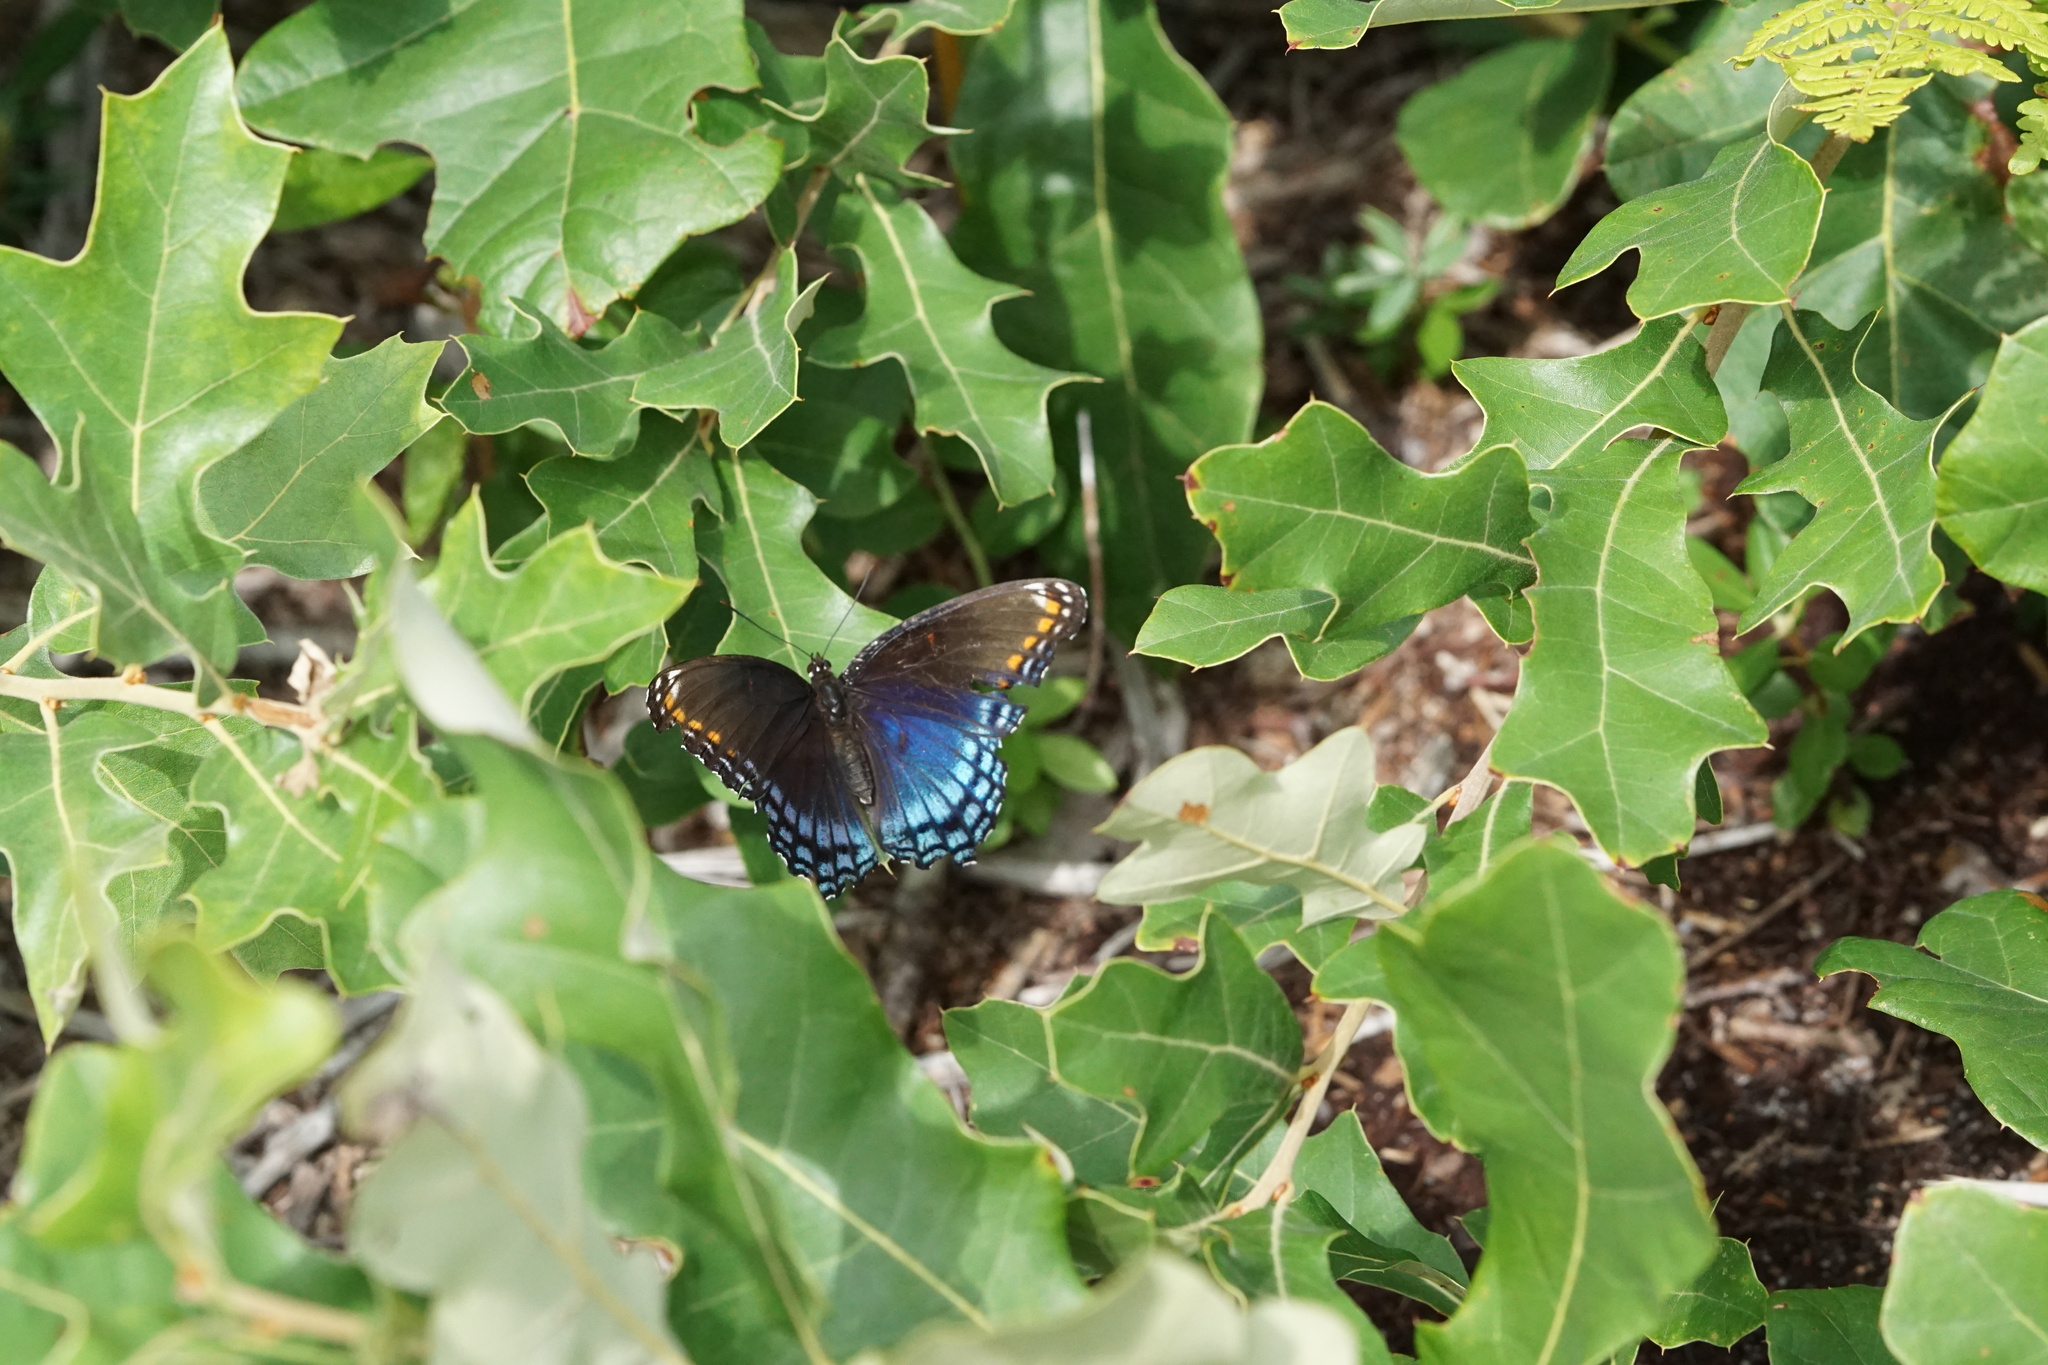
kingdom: Animalia
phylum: Arthropoda
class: Insecta
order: Lepidoptera
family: Nymphalidae
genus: Limenitis
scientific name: Limenitis astyanax
